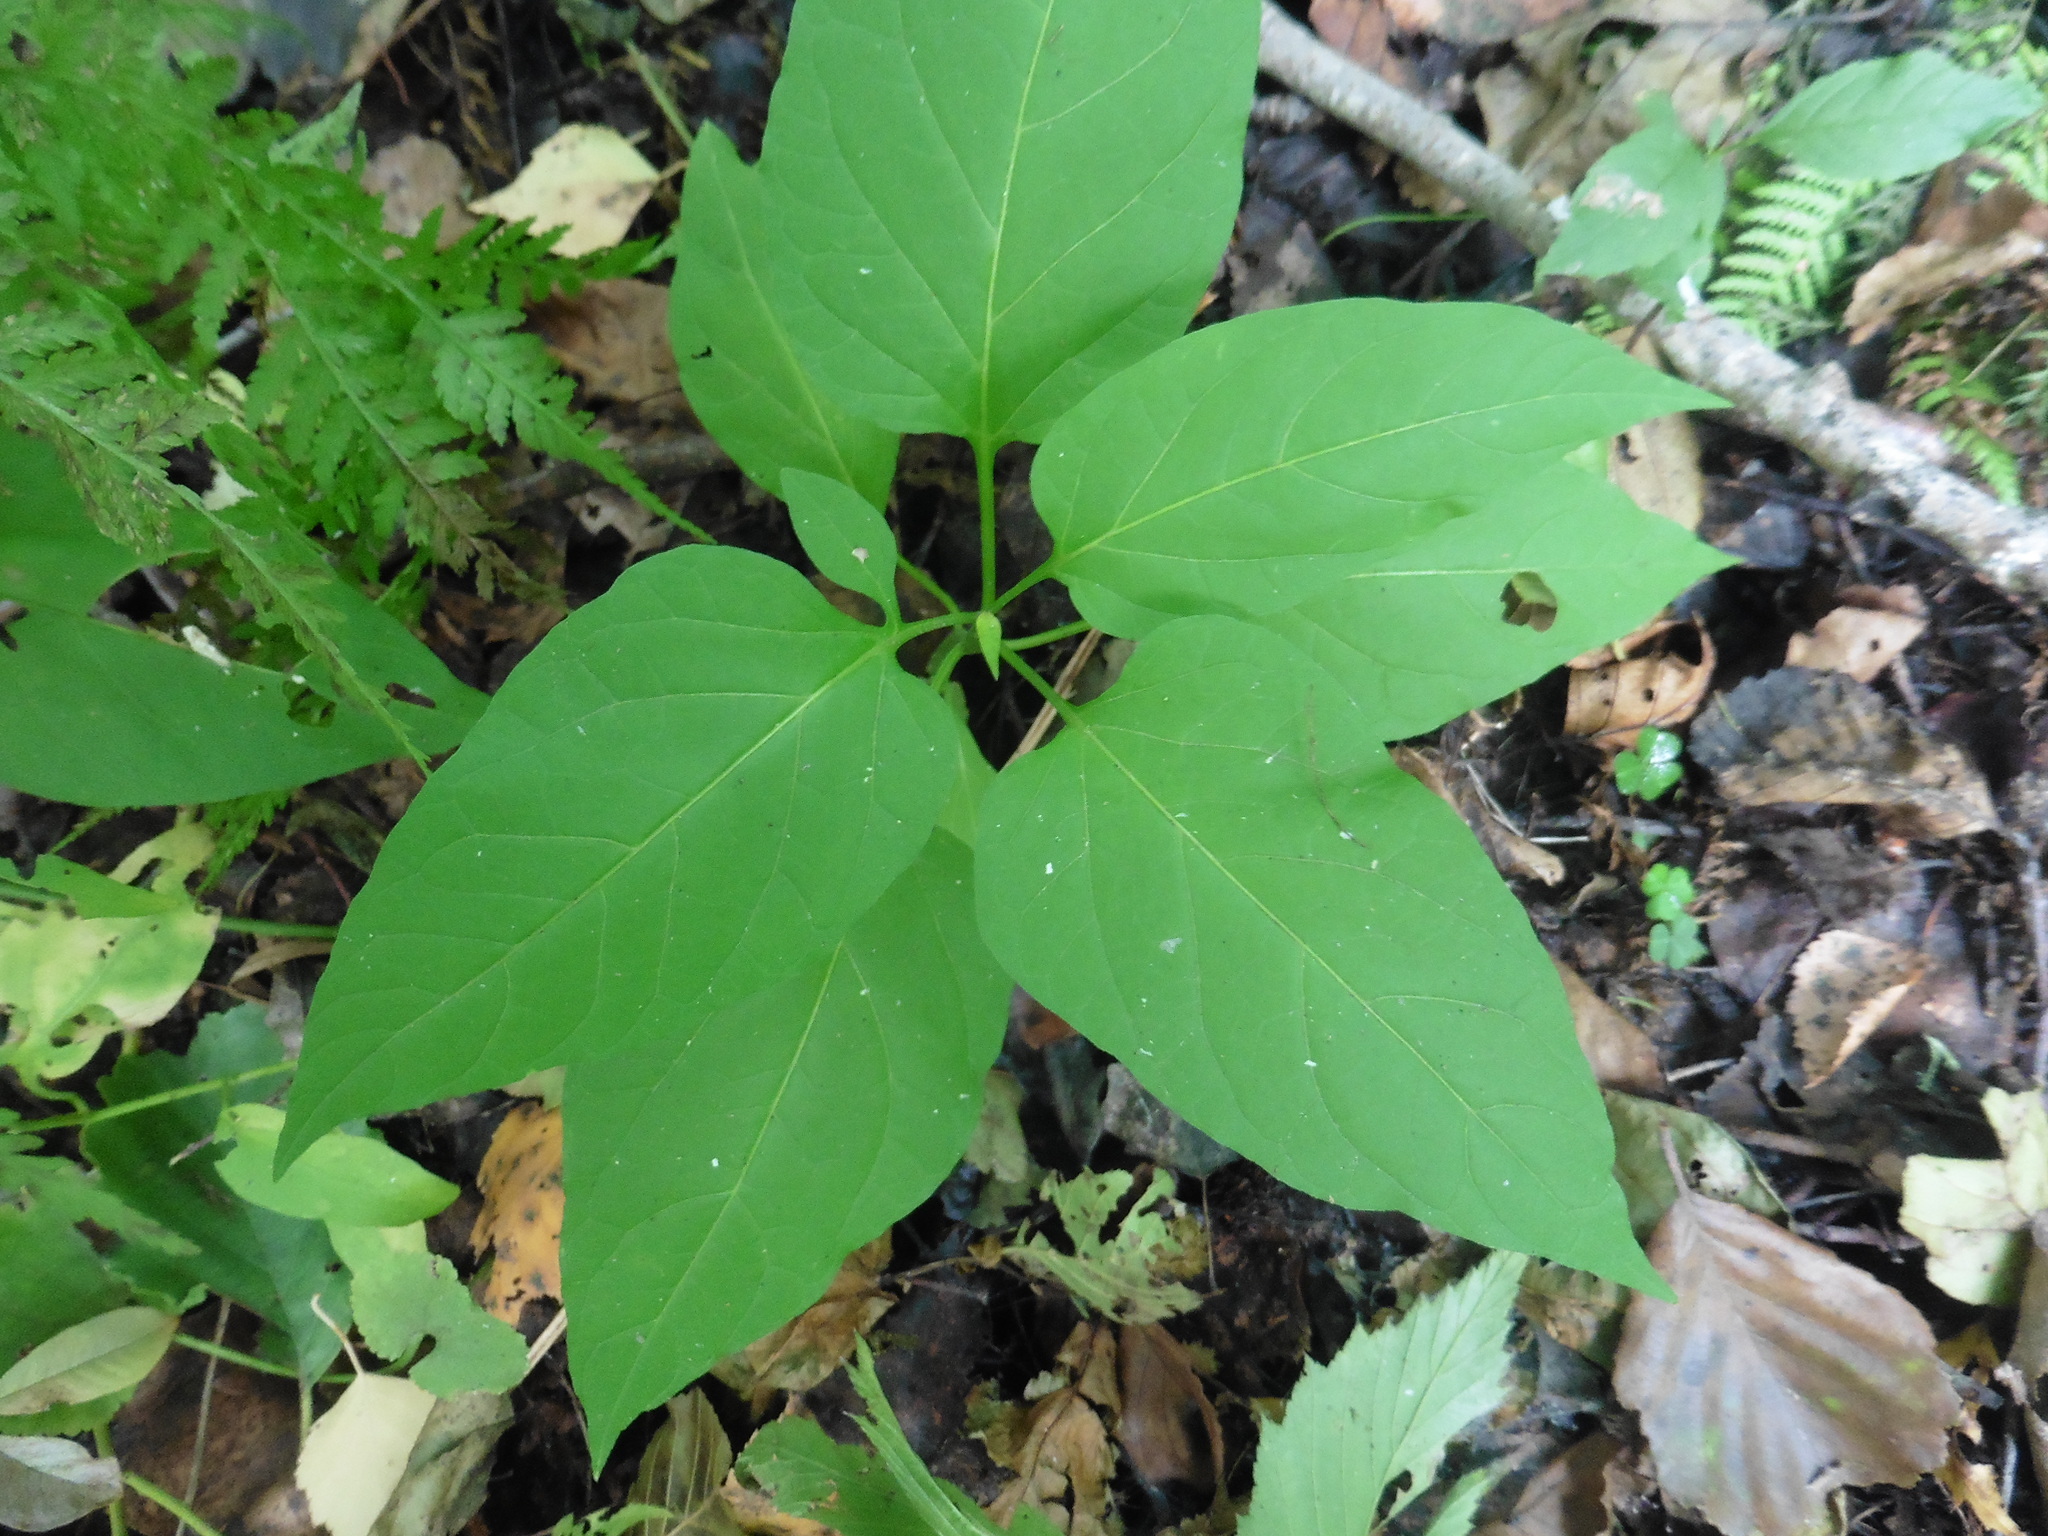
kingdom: Plantae
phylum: Tracheophyta
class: Magnoliopsida
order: Solanales
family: Solanaceae
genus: Solanum
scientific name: Solanum dulcamara
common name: Climbing nightshade
